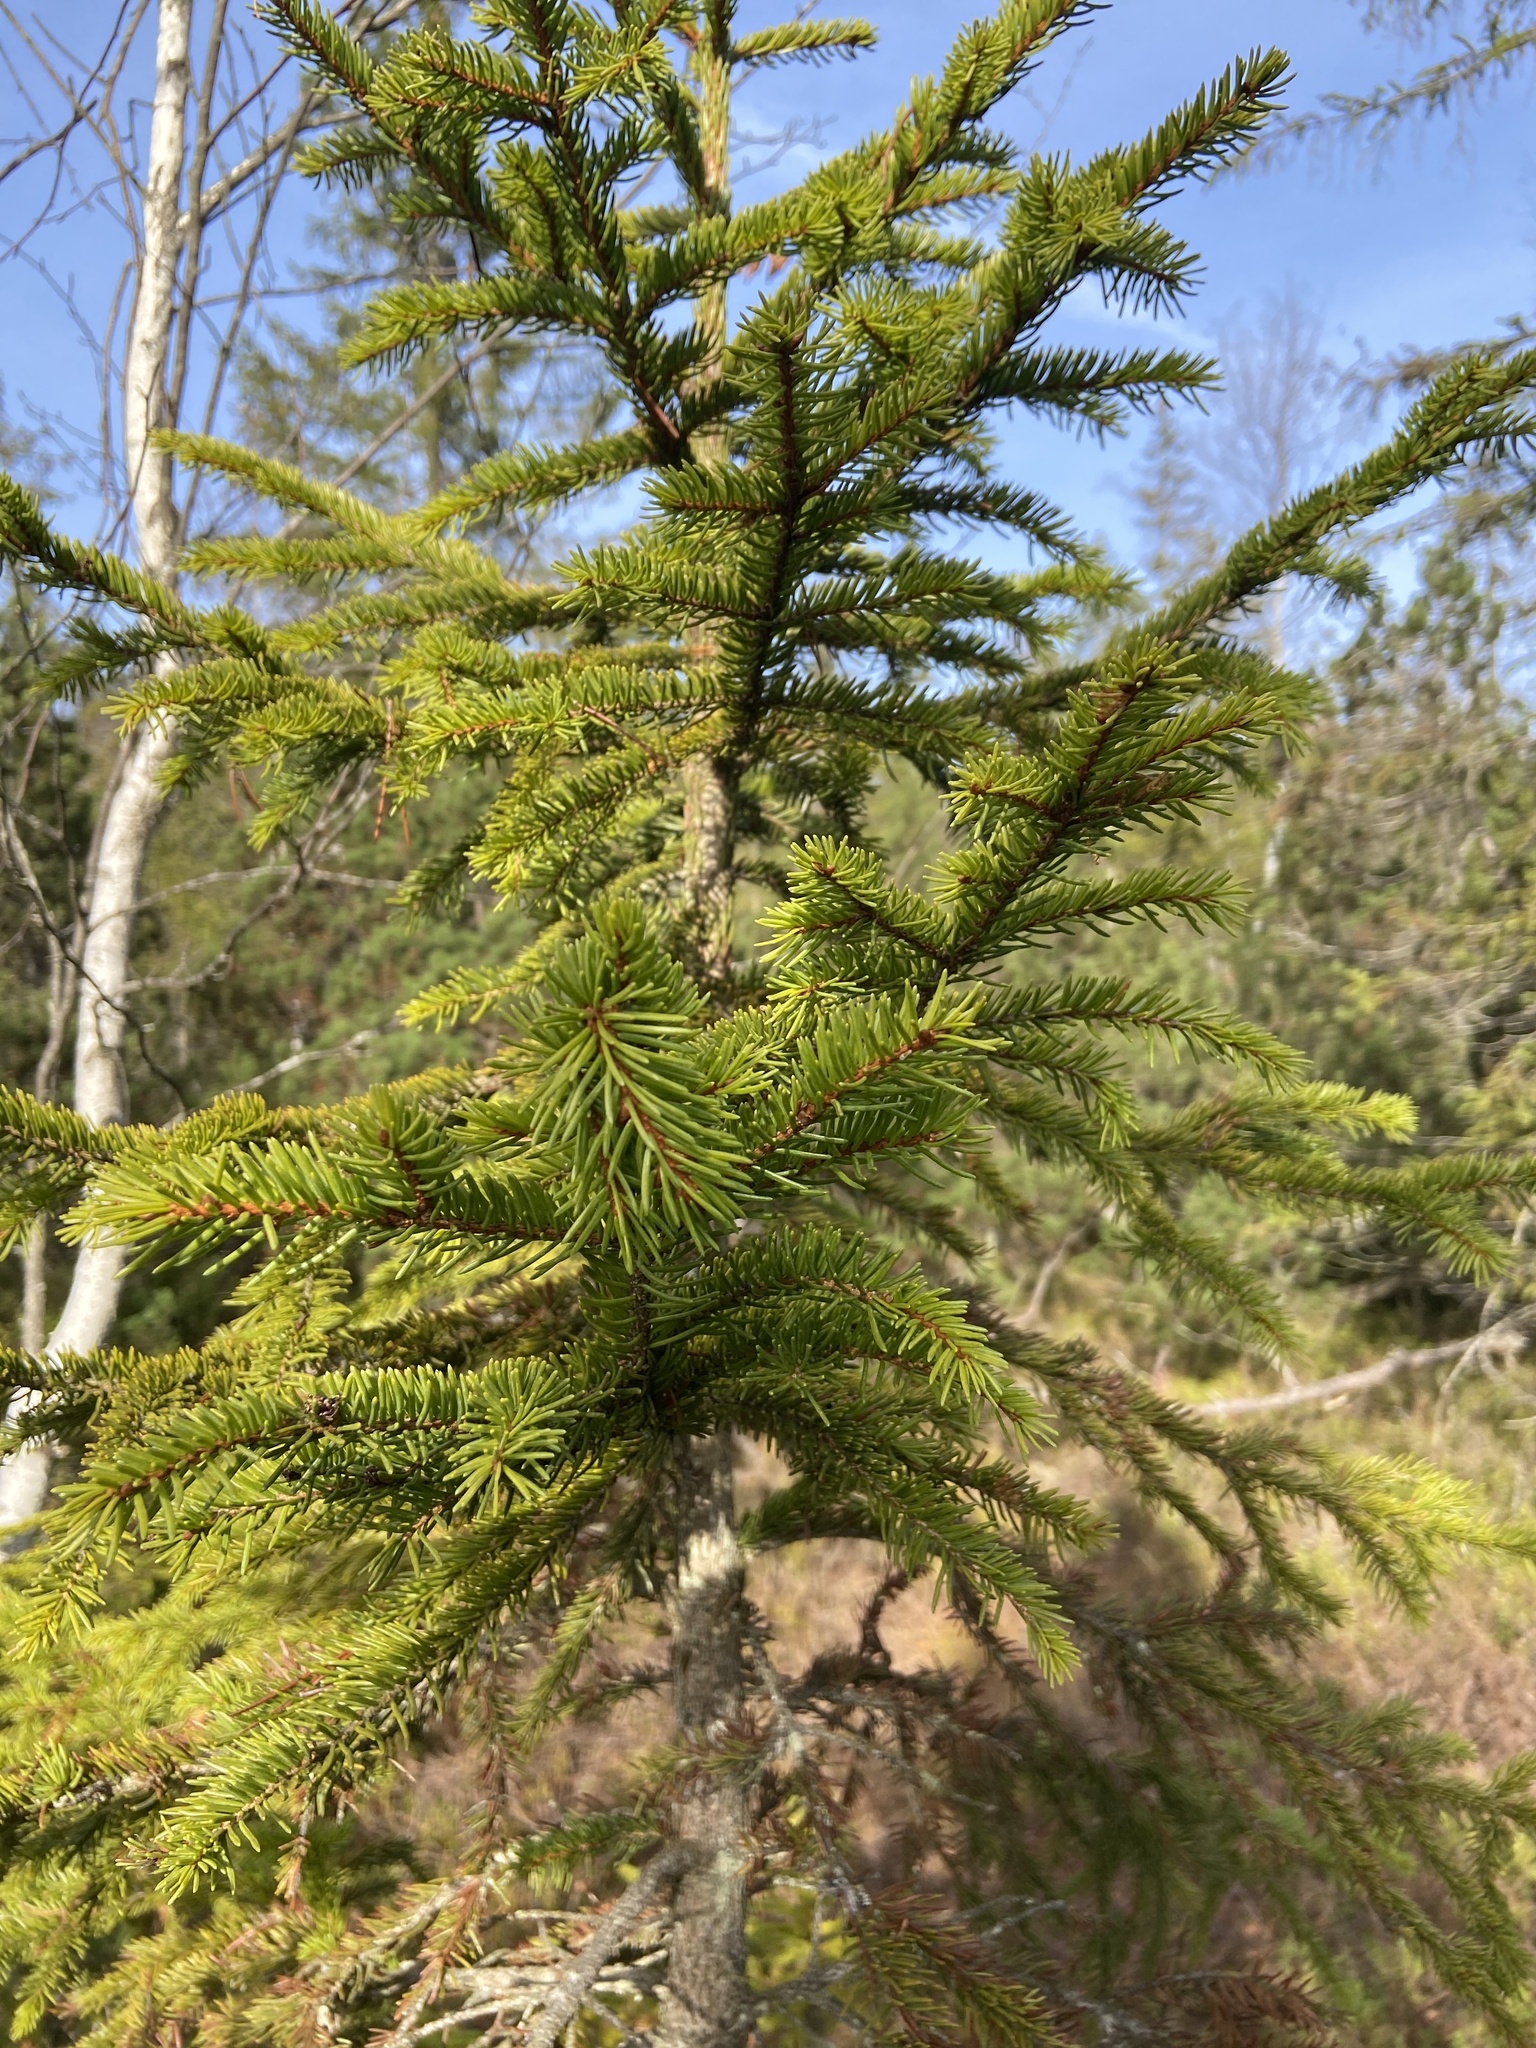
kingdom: Plantae
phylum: Tracheophyta
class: Pinopsida
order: Pinales
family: Pinaceae
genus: Picea
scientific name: Picea abies
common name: Norway spruce
